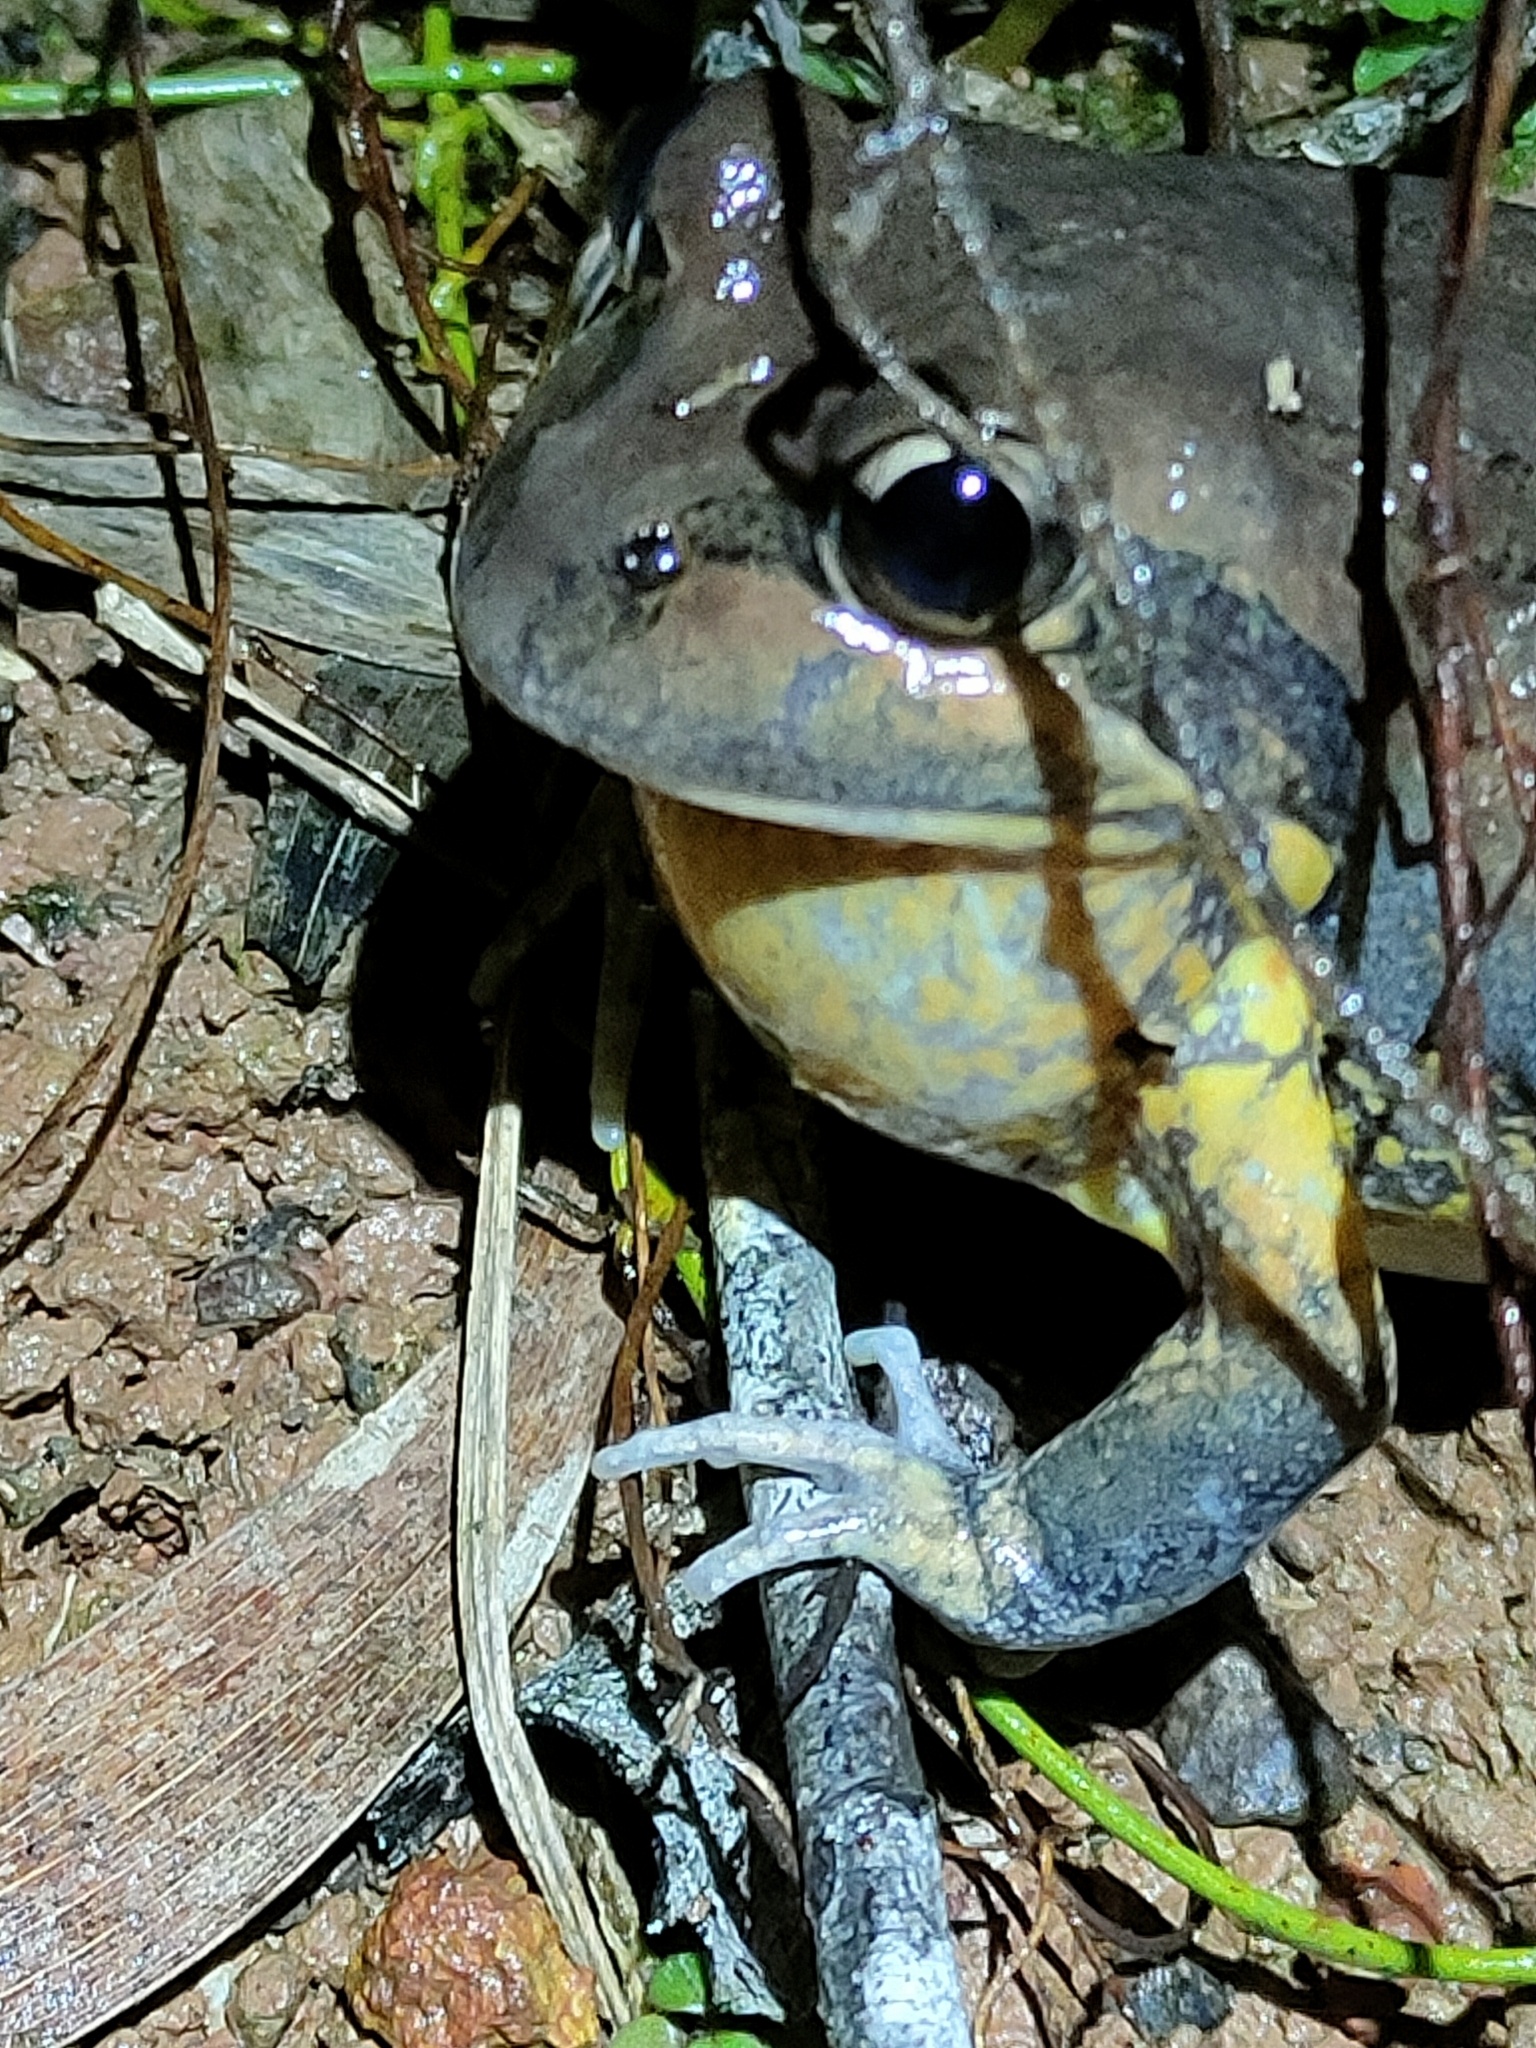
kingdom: Animalia
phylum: Chordata
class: Amphibia
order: Anura
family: Limnodynastidae
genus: Limnodynastes
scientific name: Limnodynastes terraereginae
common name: Northern banjo frog
